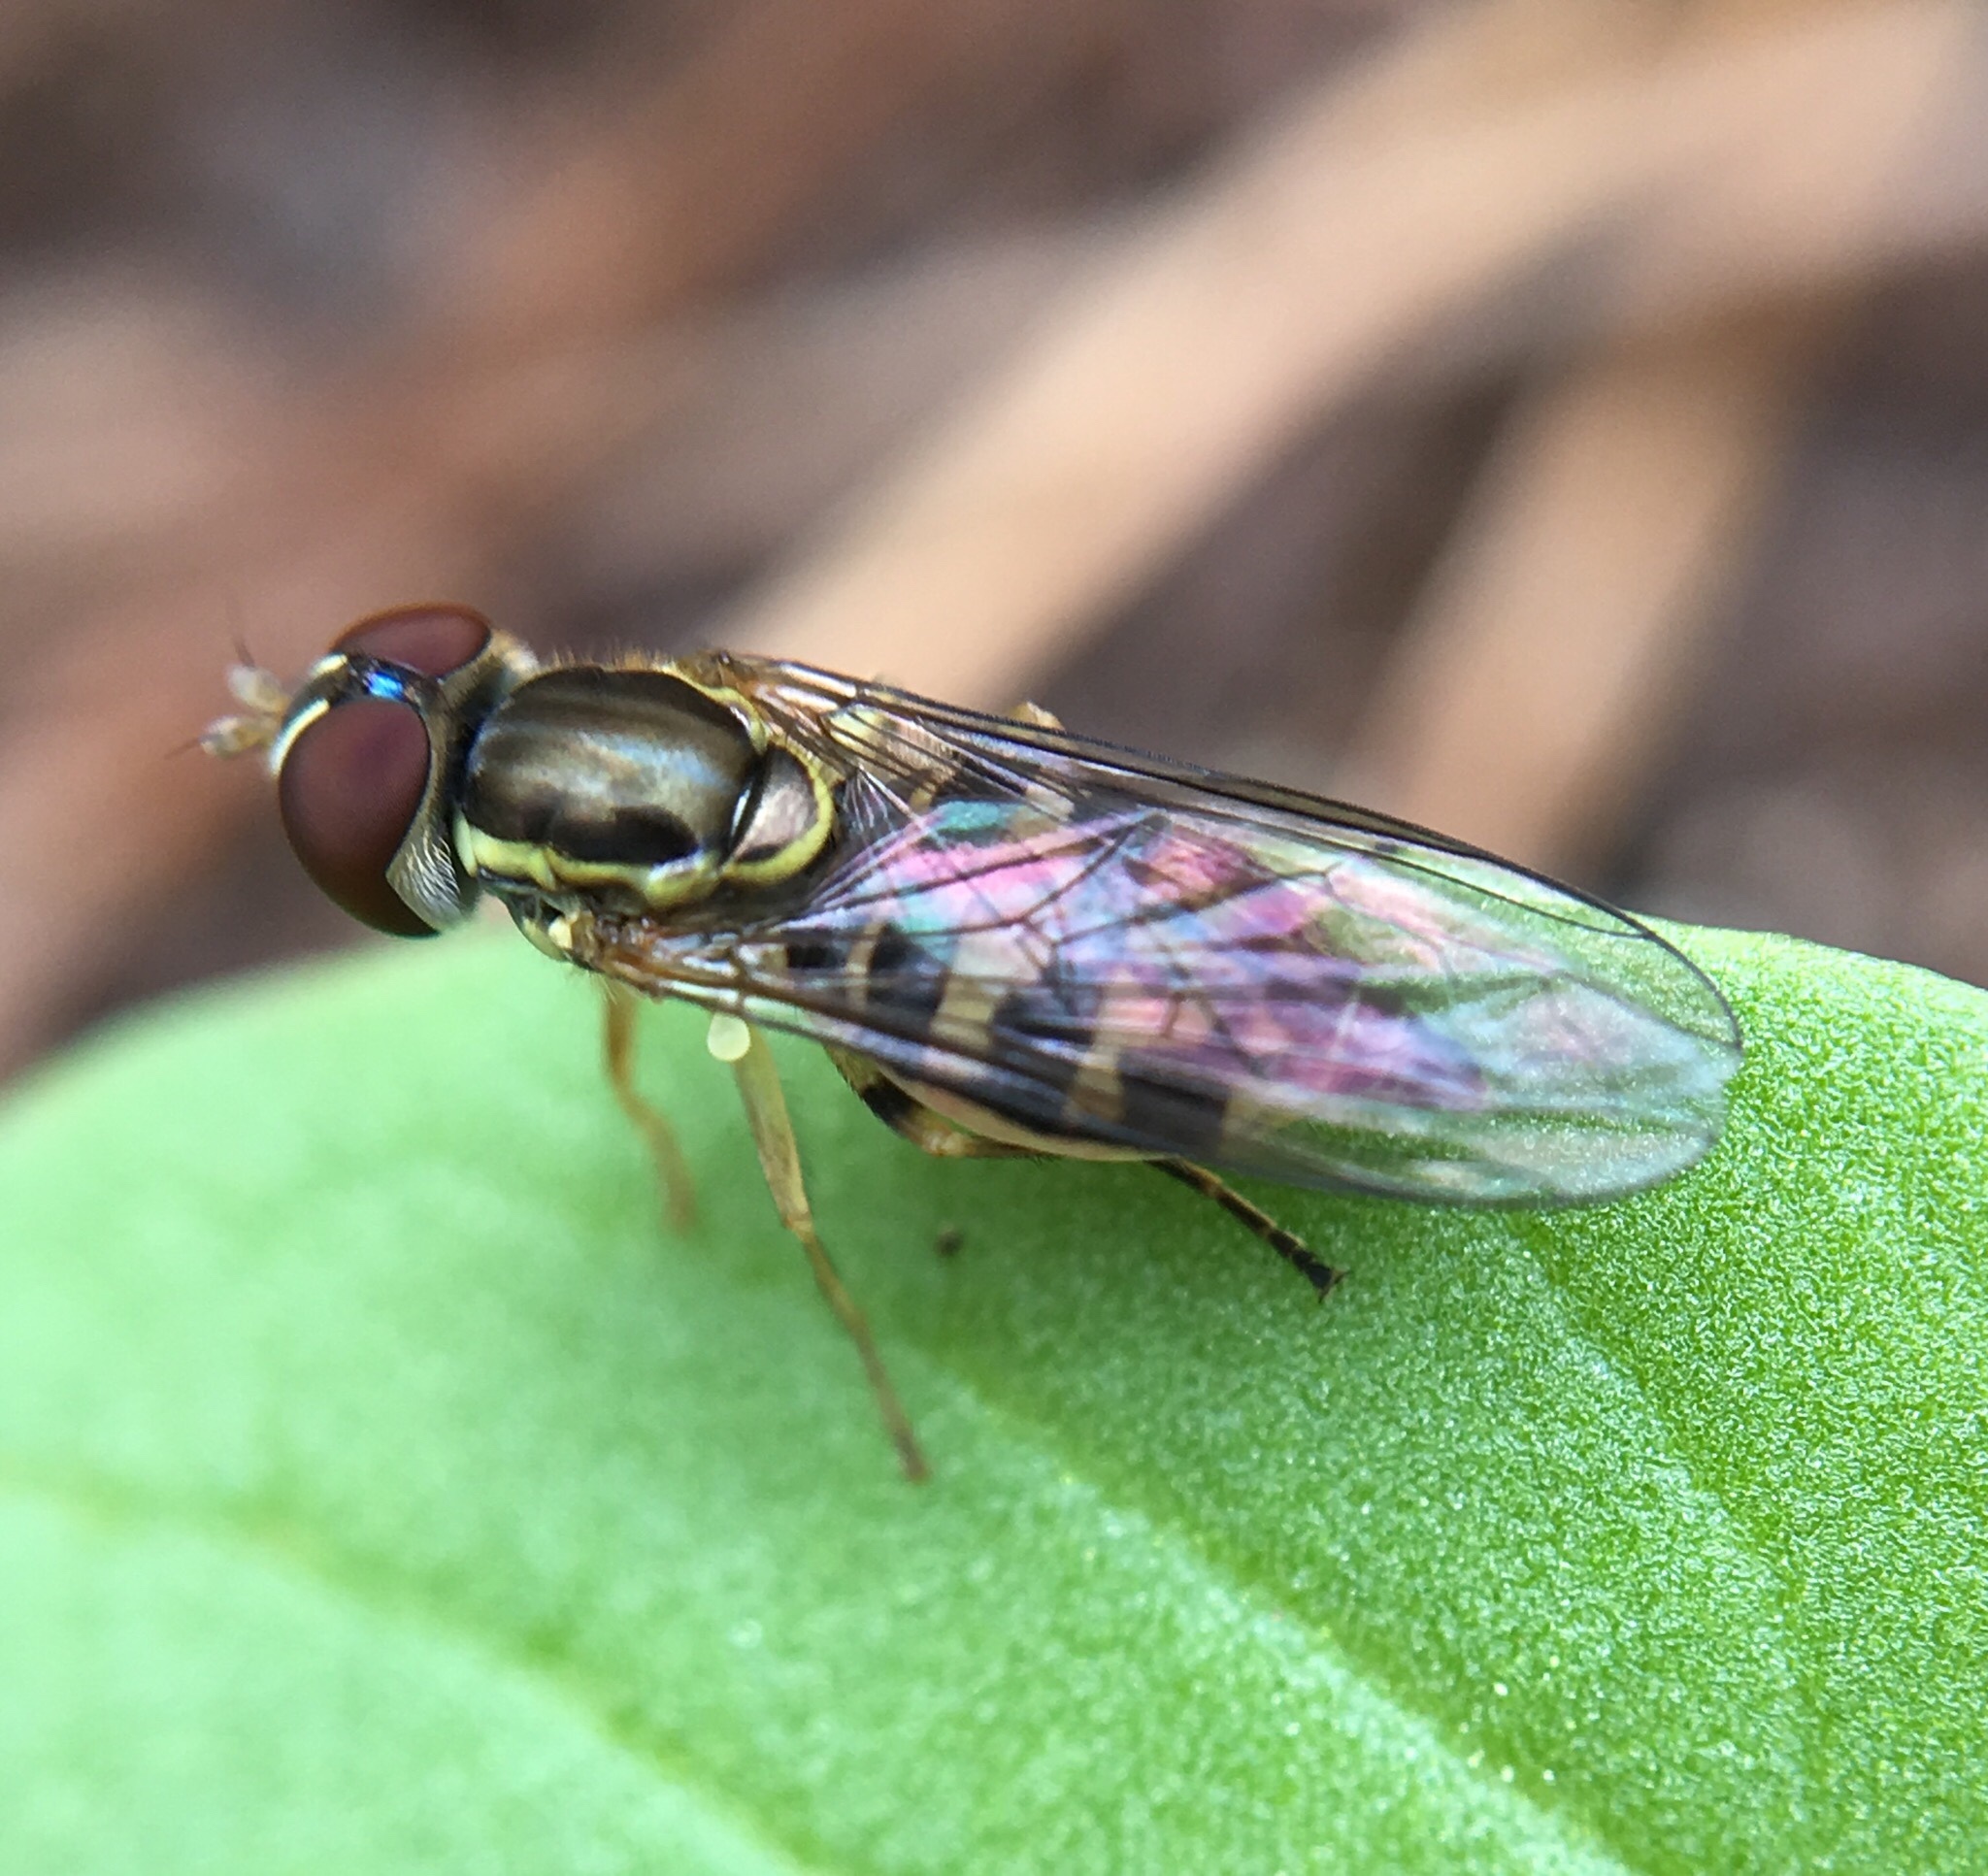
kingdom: Animalia
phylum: Arthropoda
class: Insecta
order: Diptera
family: Syrphidae
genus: Toxomerus
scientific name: Toxomerus geminatus
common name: Eastern calligrapher
